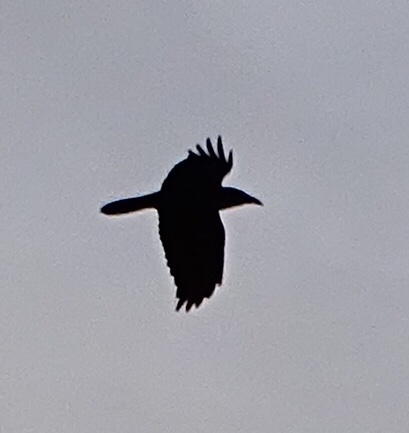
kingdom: Animalia
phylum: Chordata
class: Aves
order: Passeriformes
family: Corvidae
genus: Corvus
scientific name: Corvus corax
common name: Common raven
